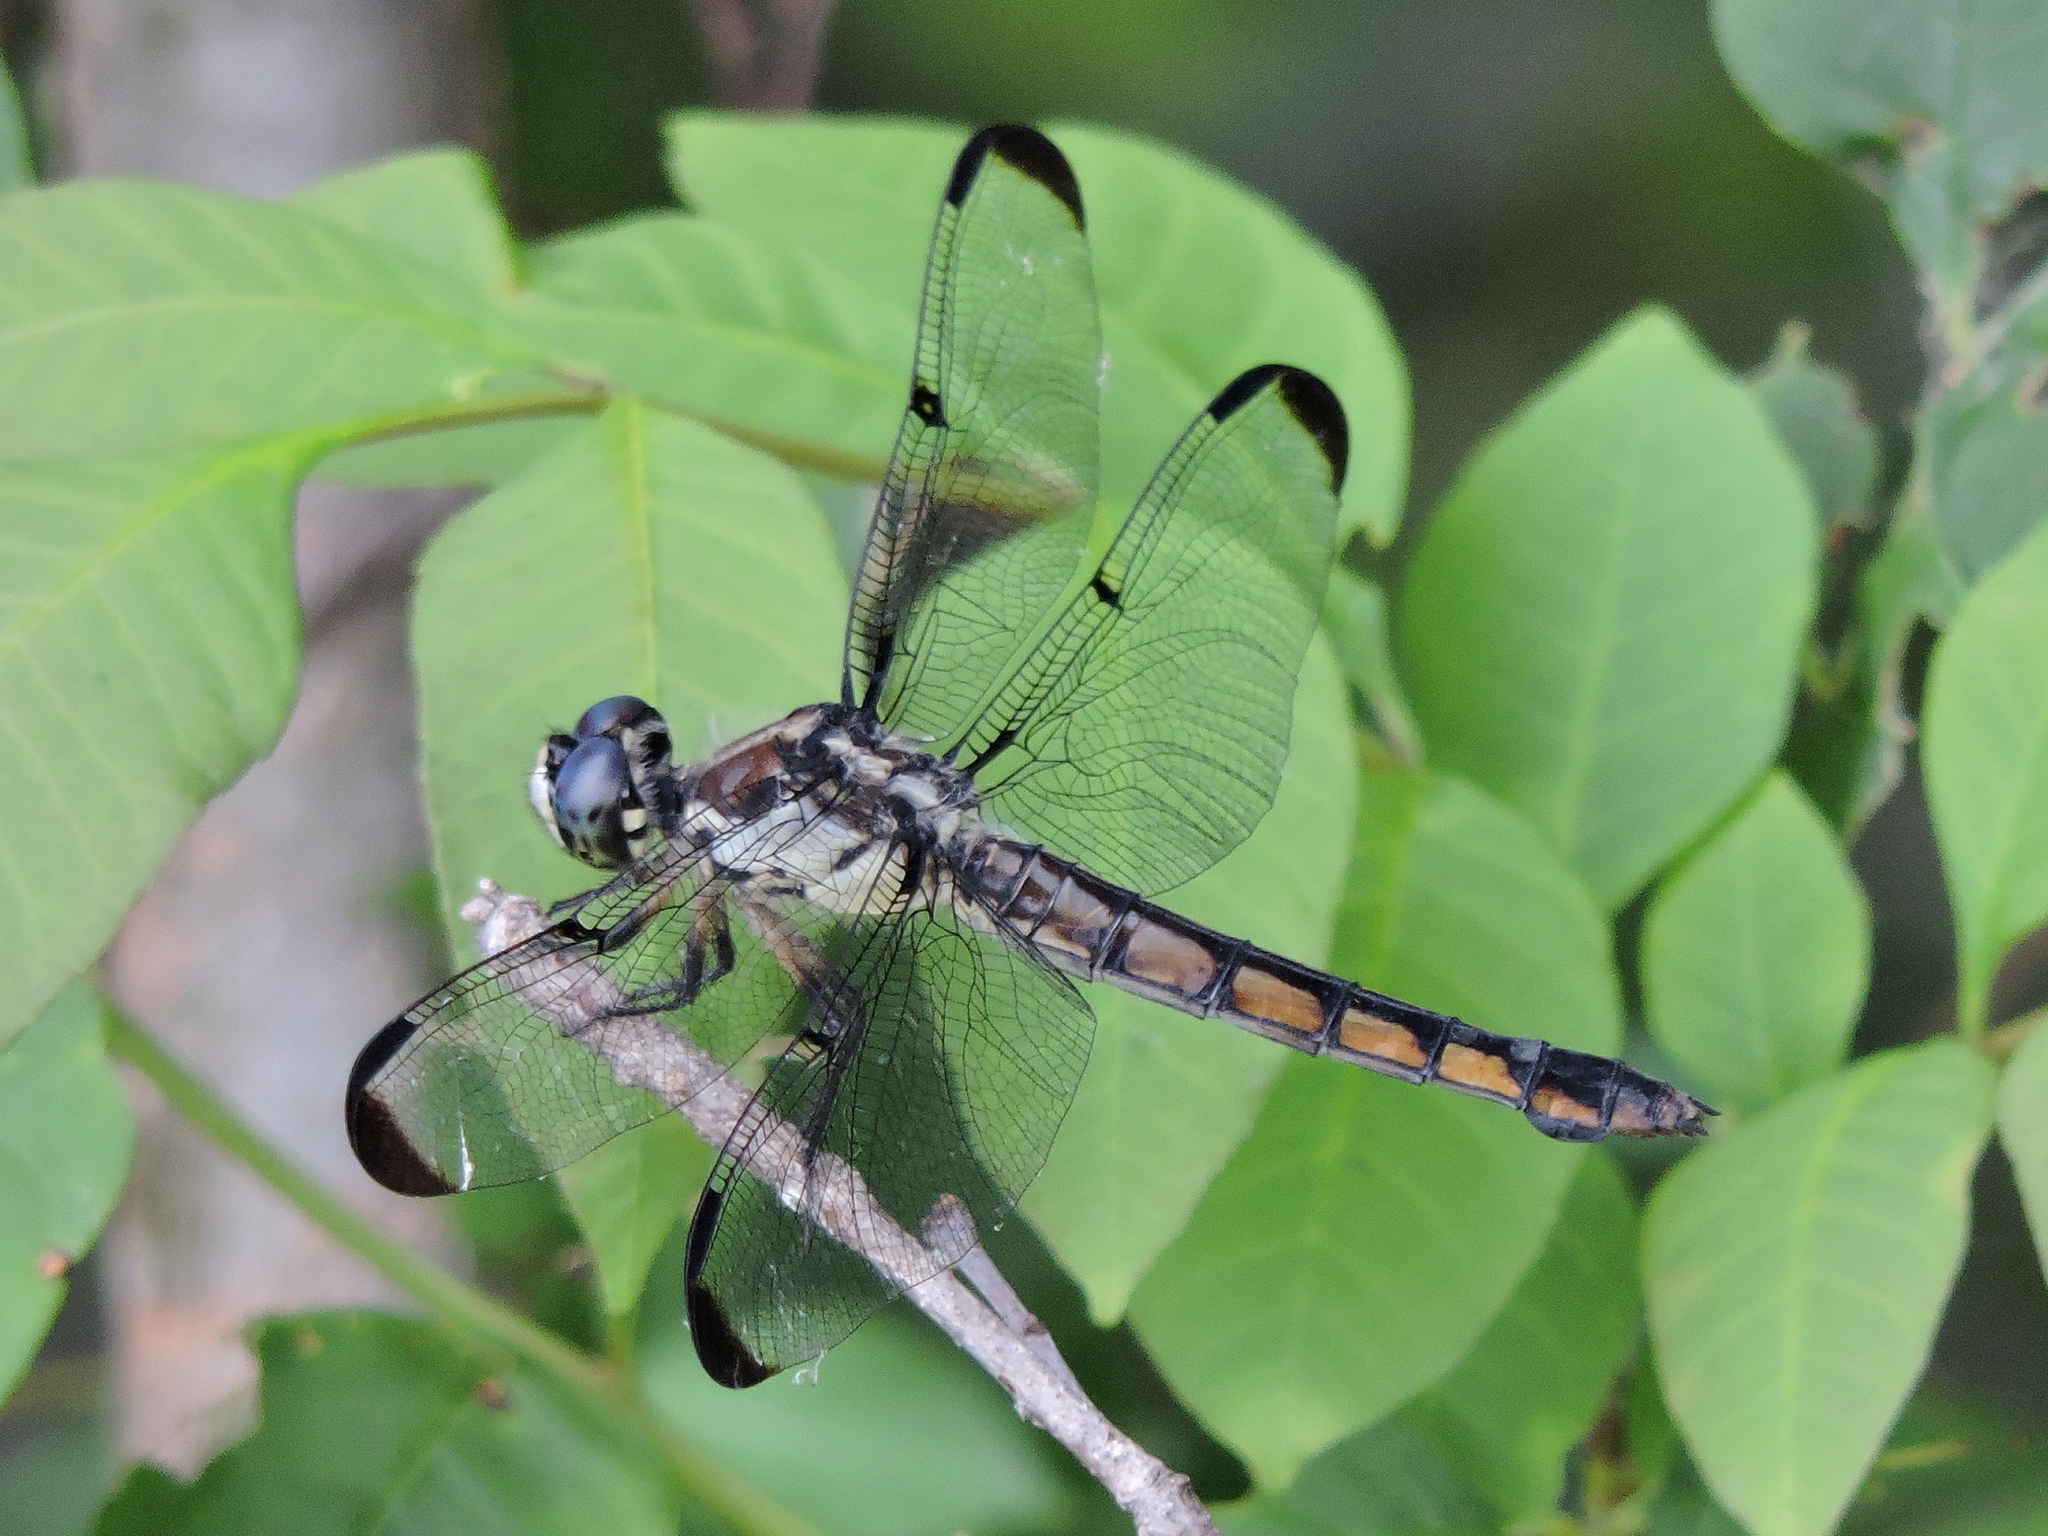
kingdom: Animalia
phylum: Arthropoda
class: Insecta
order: Odonata
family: Libellulidae
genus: Libellula
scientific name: Libellula vibrans
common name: Great blue skimmer
